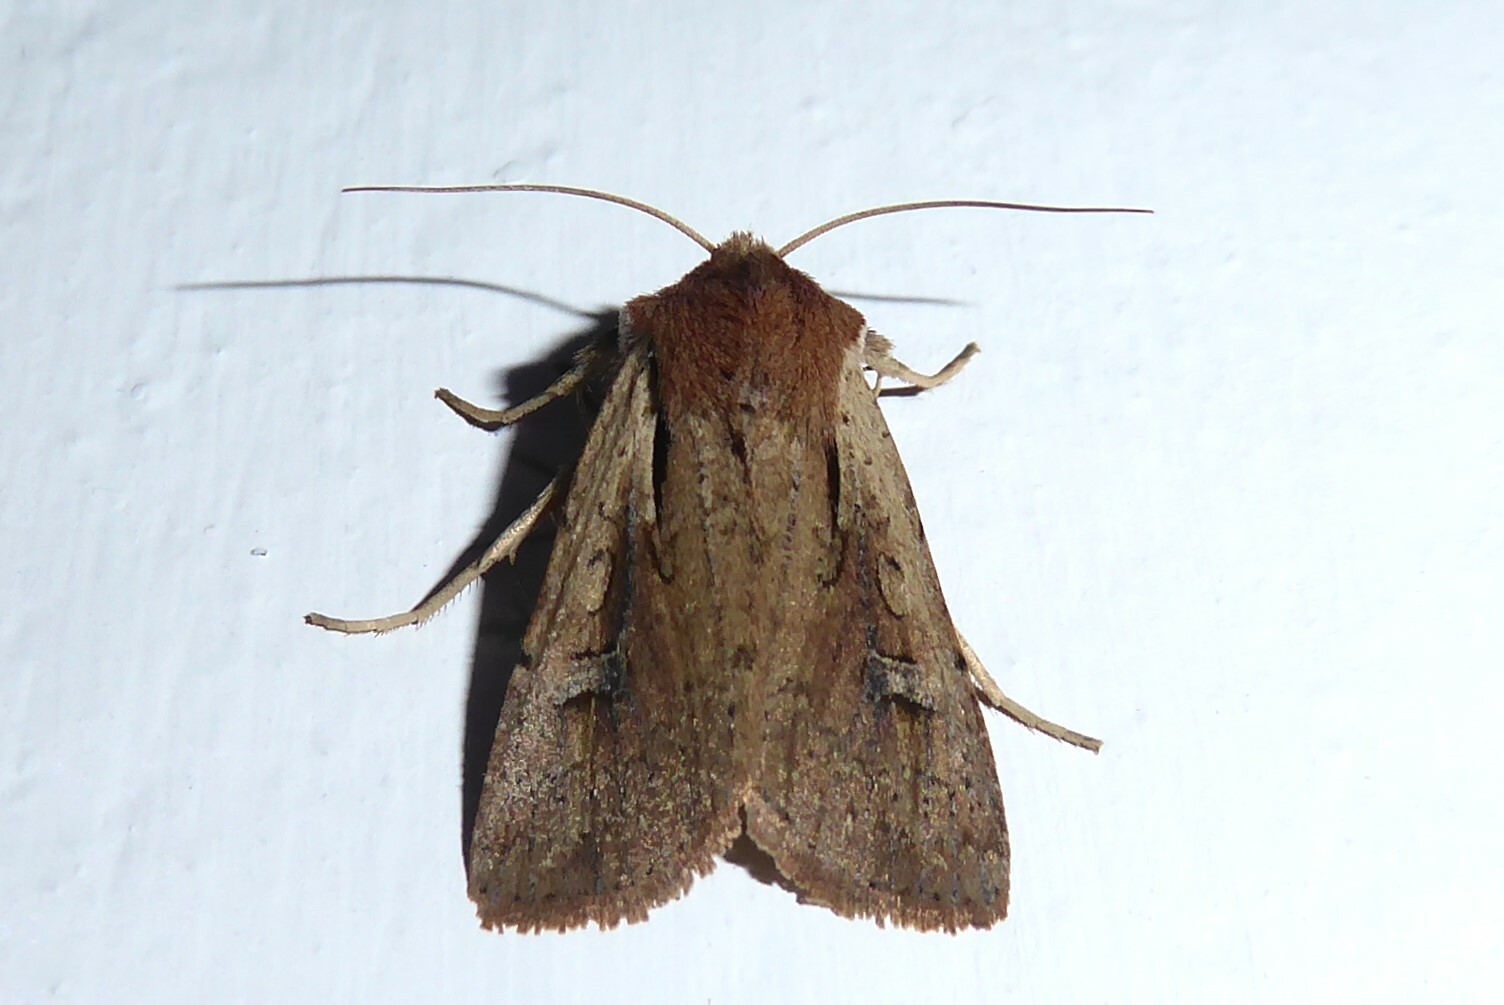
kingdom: Animalia
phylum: Arthropoda
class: Insecta
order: Lepidoptera
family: Noctuidae
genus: Ichneutica
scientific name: Ichneutica atristriga
